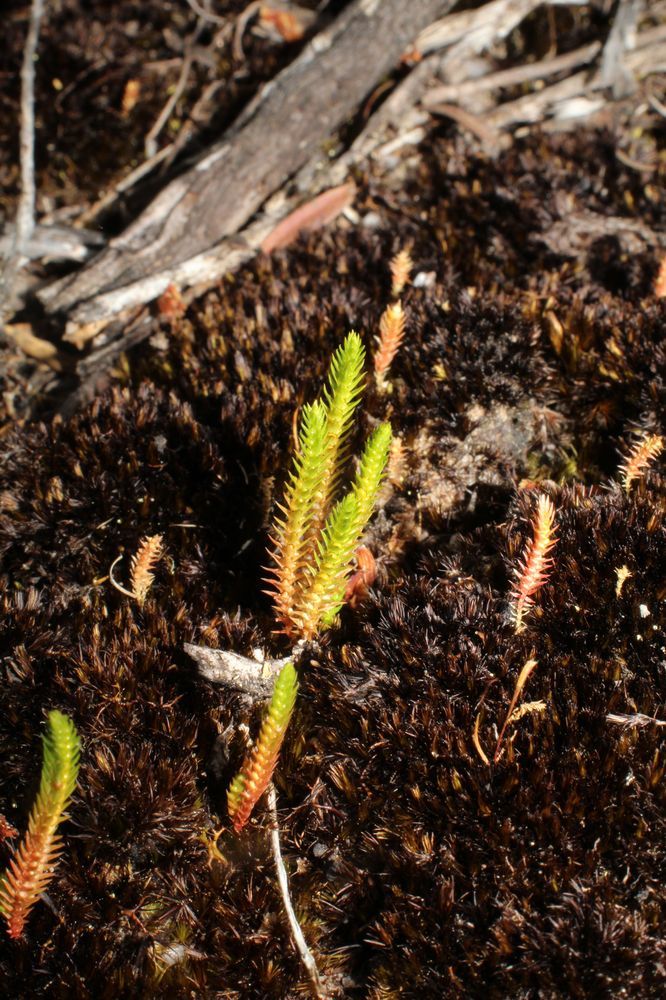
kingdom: Plantae
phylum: Tracheophyta
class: Lycopodiopsida
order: Selaginellales
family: Selaginellaceae
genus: Selaginella
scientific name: Selaginella gracillima
